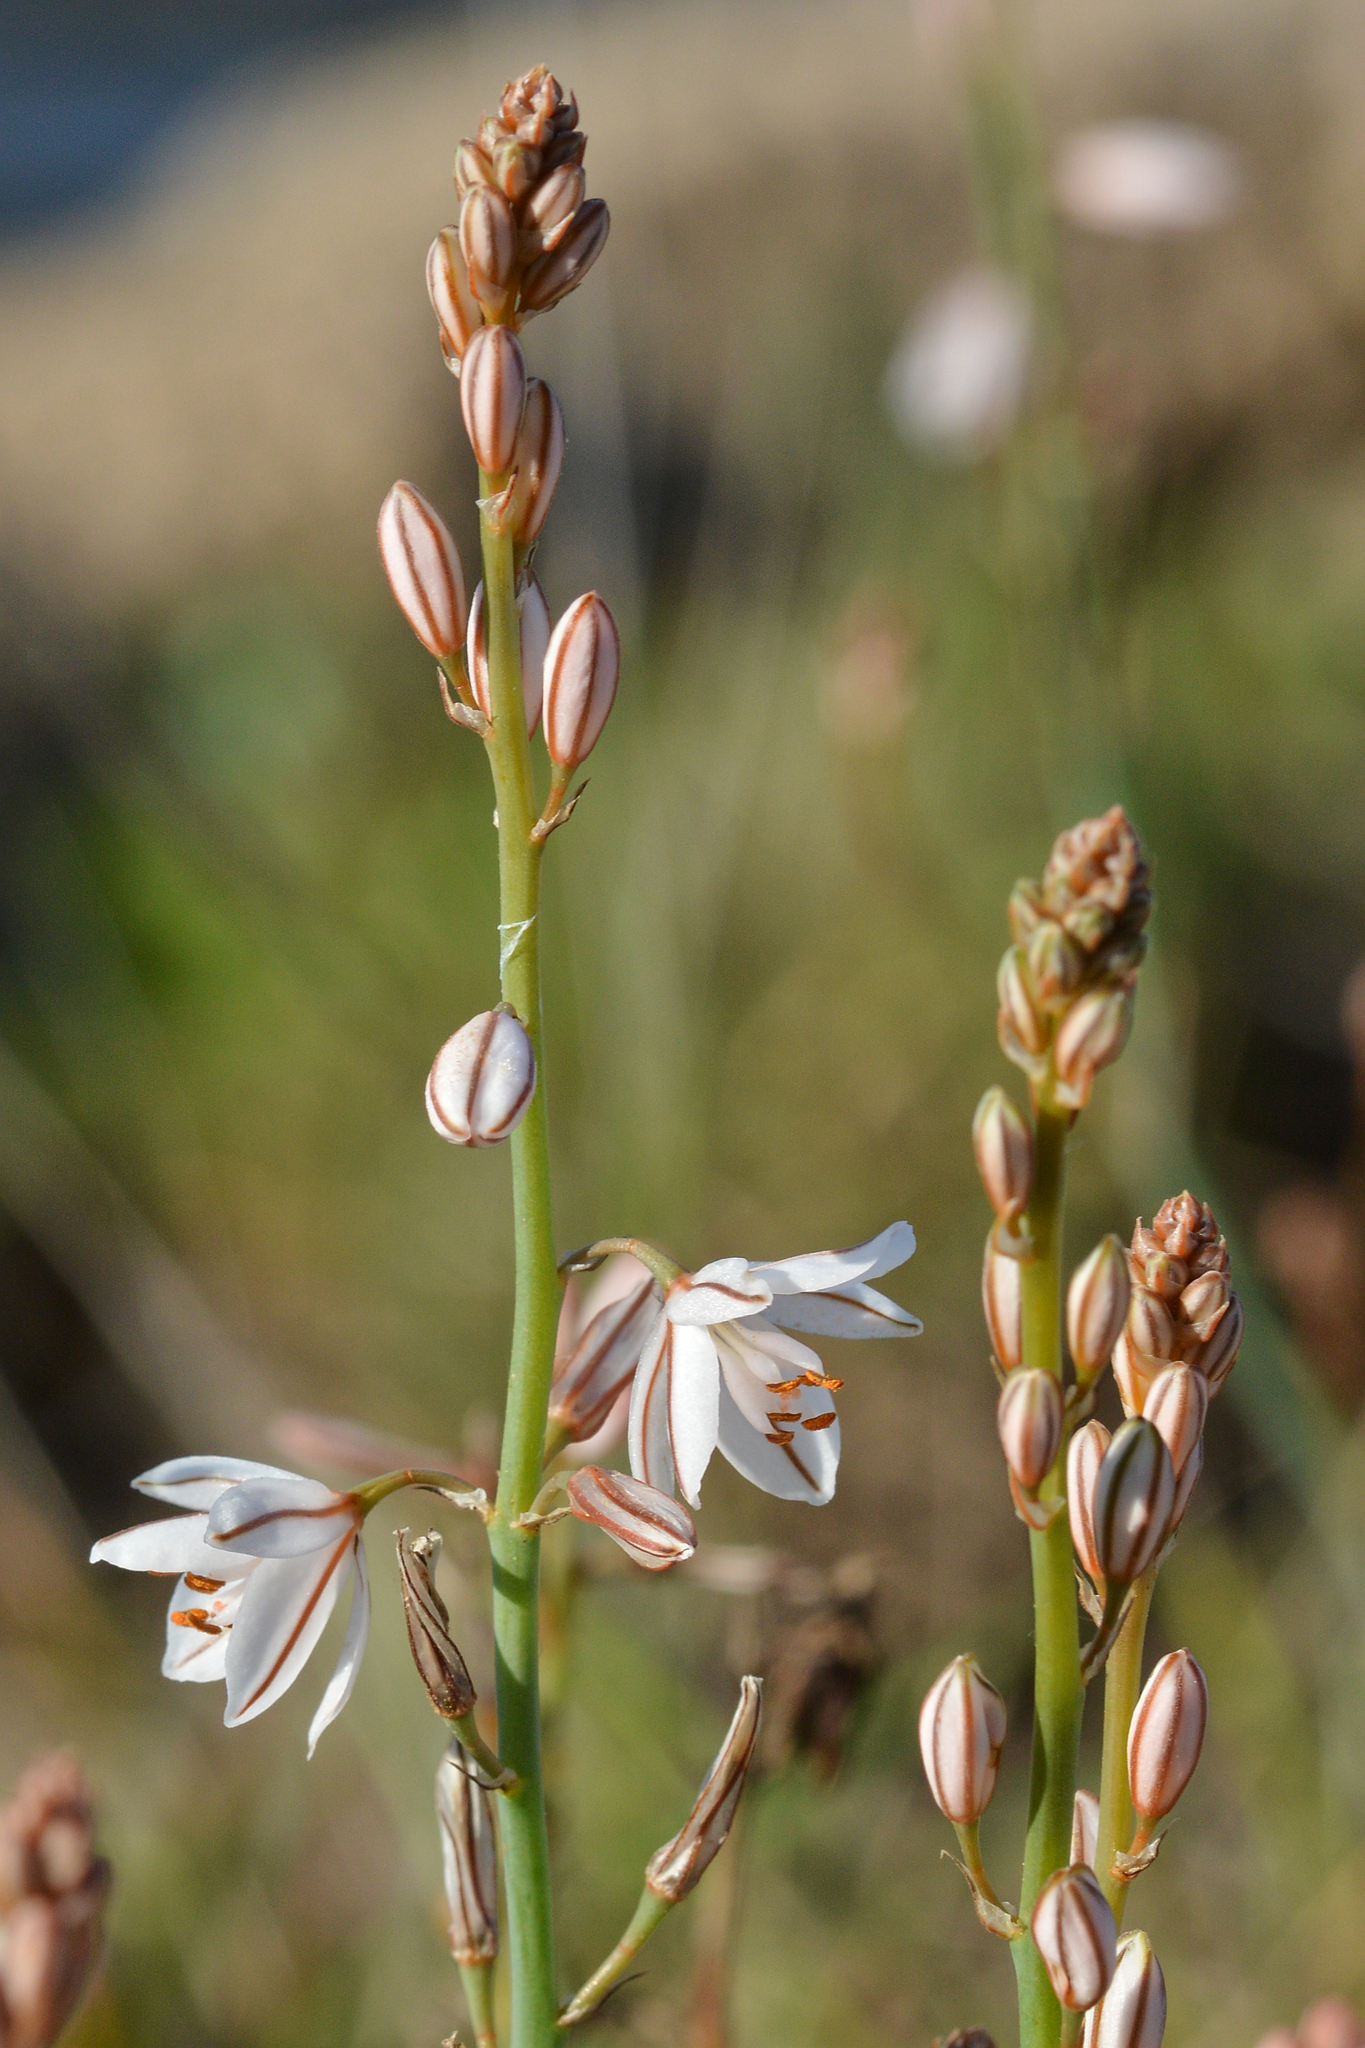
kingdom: Plantae
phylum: Tracheophyta
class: Liliopsida
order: Asparagales
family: Asphodelaceae
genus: Asphodelus
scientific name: Asphodelus fistulosus
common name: Onionweed
